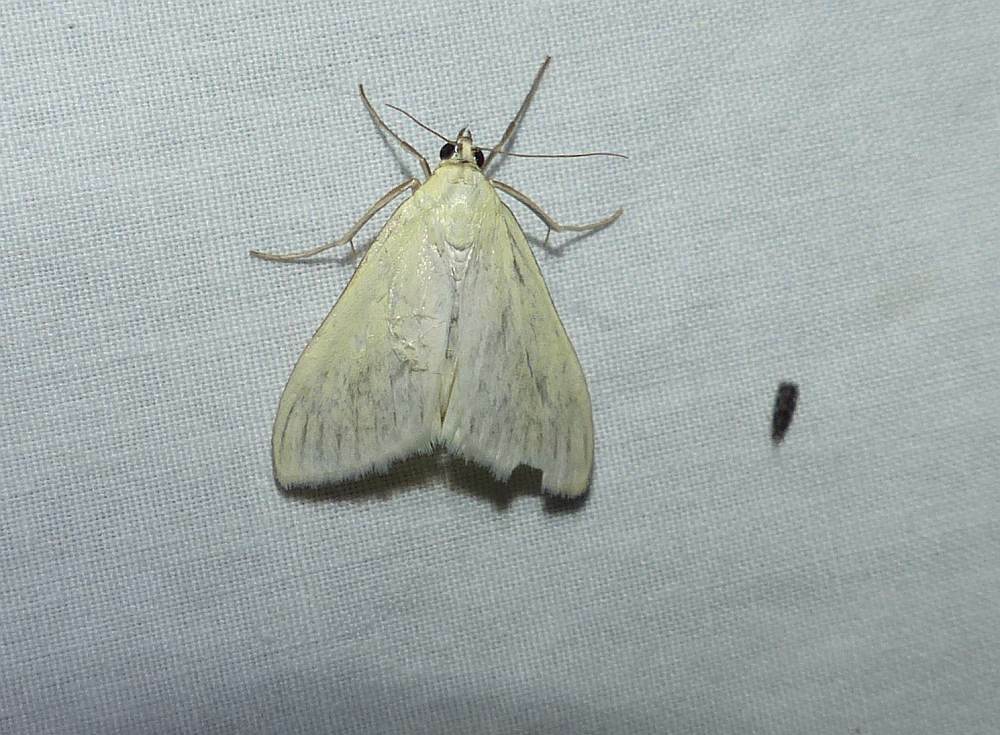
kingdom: Animalia
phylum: Arthropoda
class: Insecta
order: Lepidoptera
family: Crambidae
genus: Sitochroa
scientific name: Sitochroa palealis
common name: Greenish-yellow sitochroa moth
